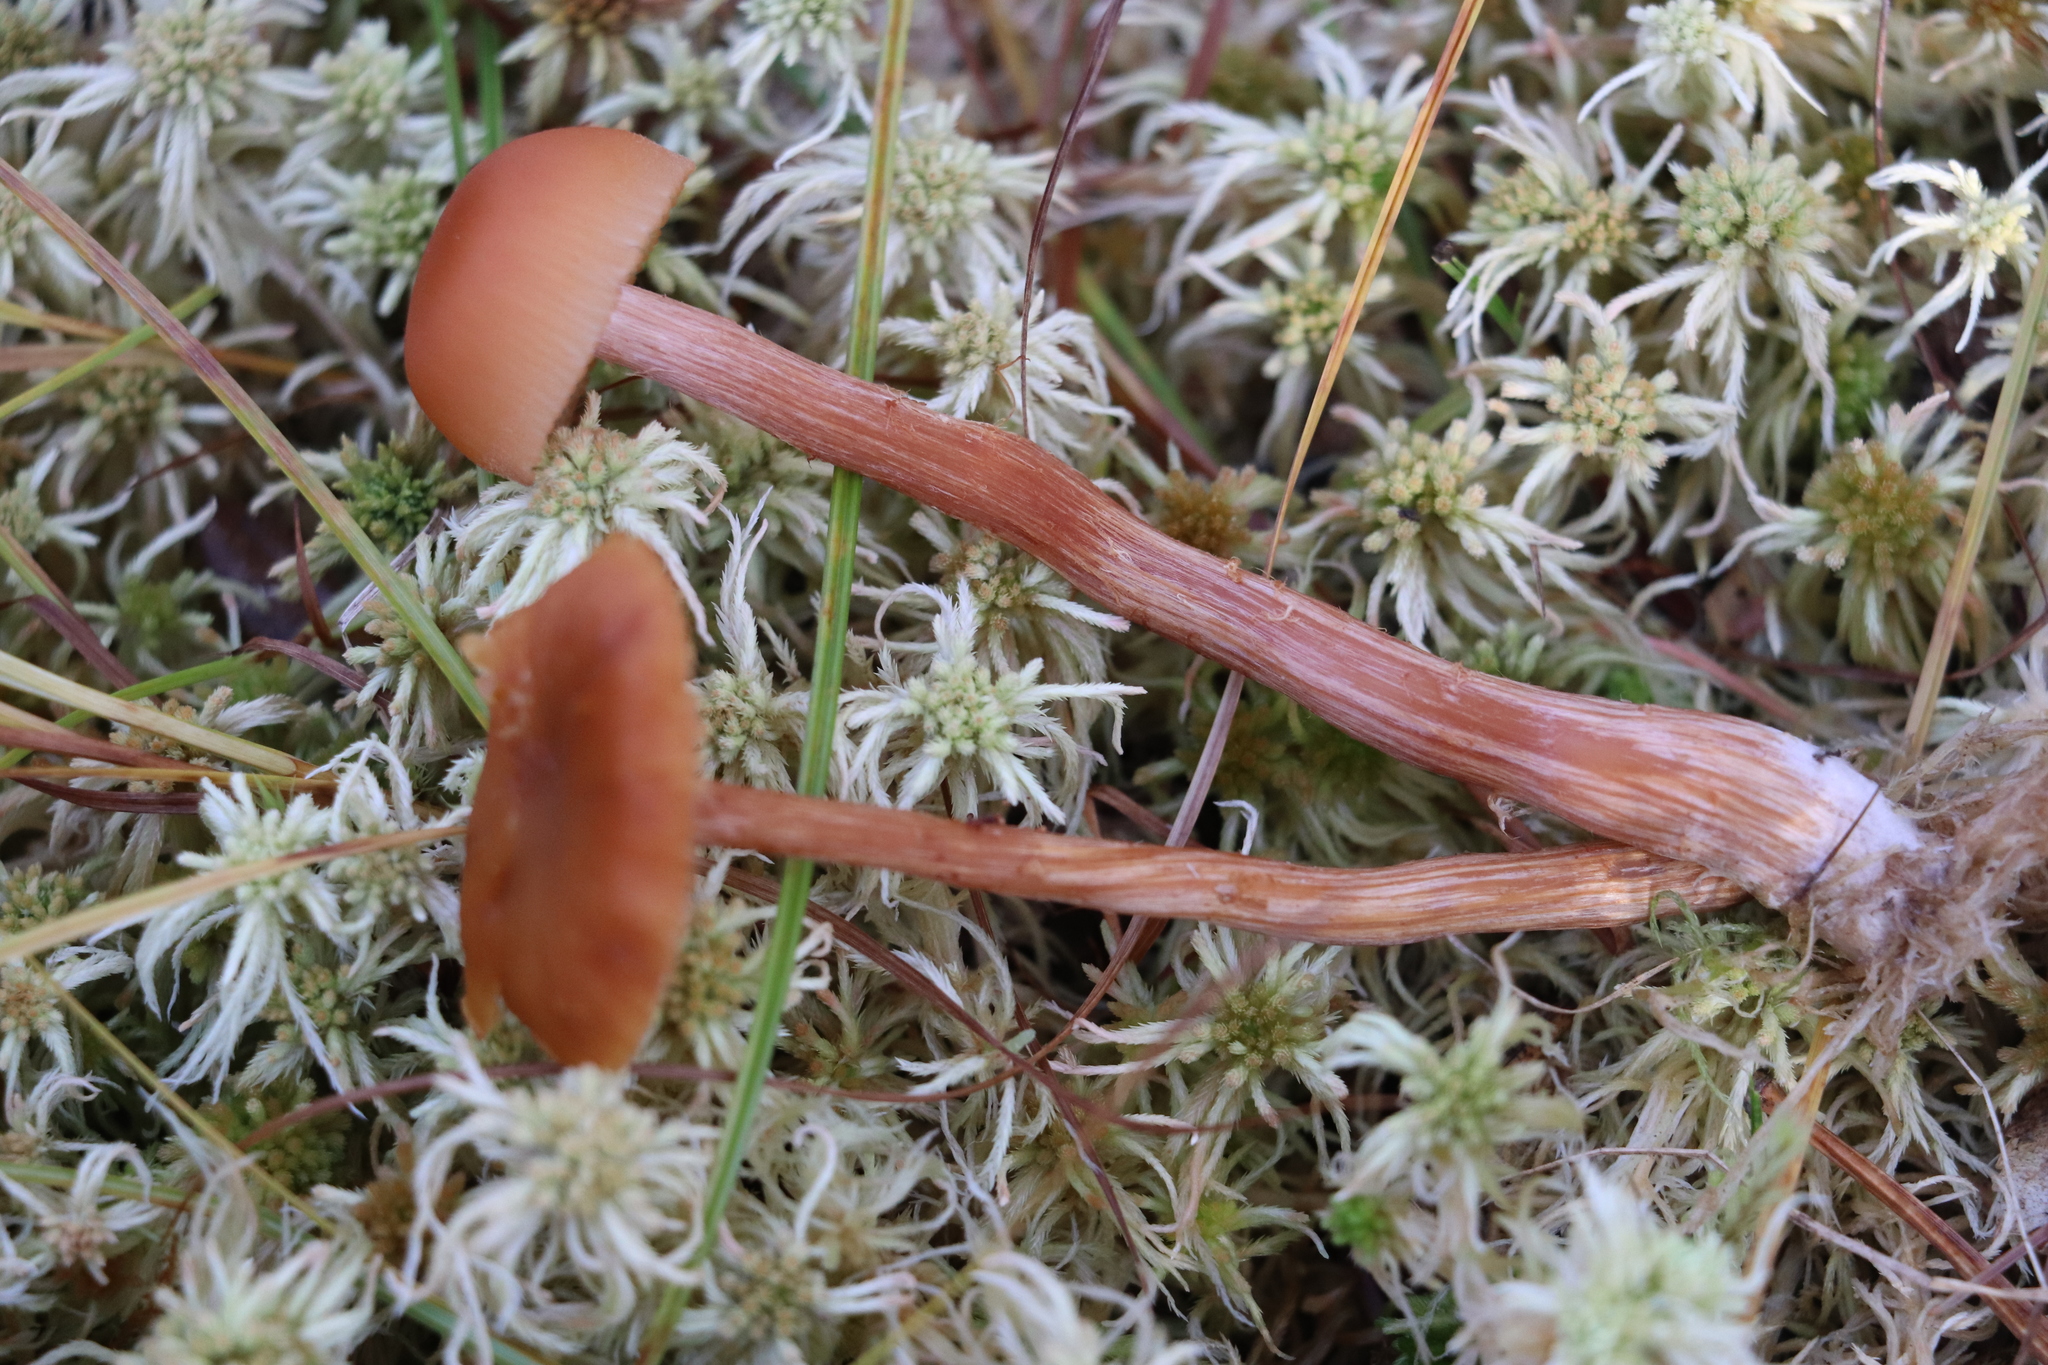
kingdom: Fungi
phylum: Basidiomycota
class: Agaricomycetes
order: Agaricales
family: Hydnangiaceae
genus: Laccaria
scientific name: Laccaria laccata
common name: Deceiver
